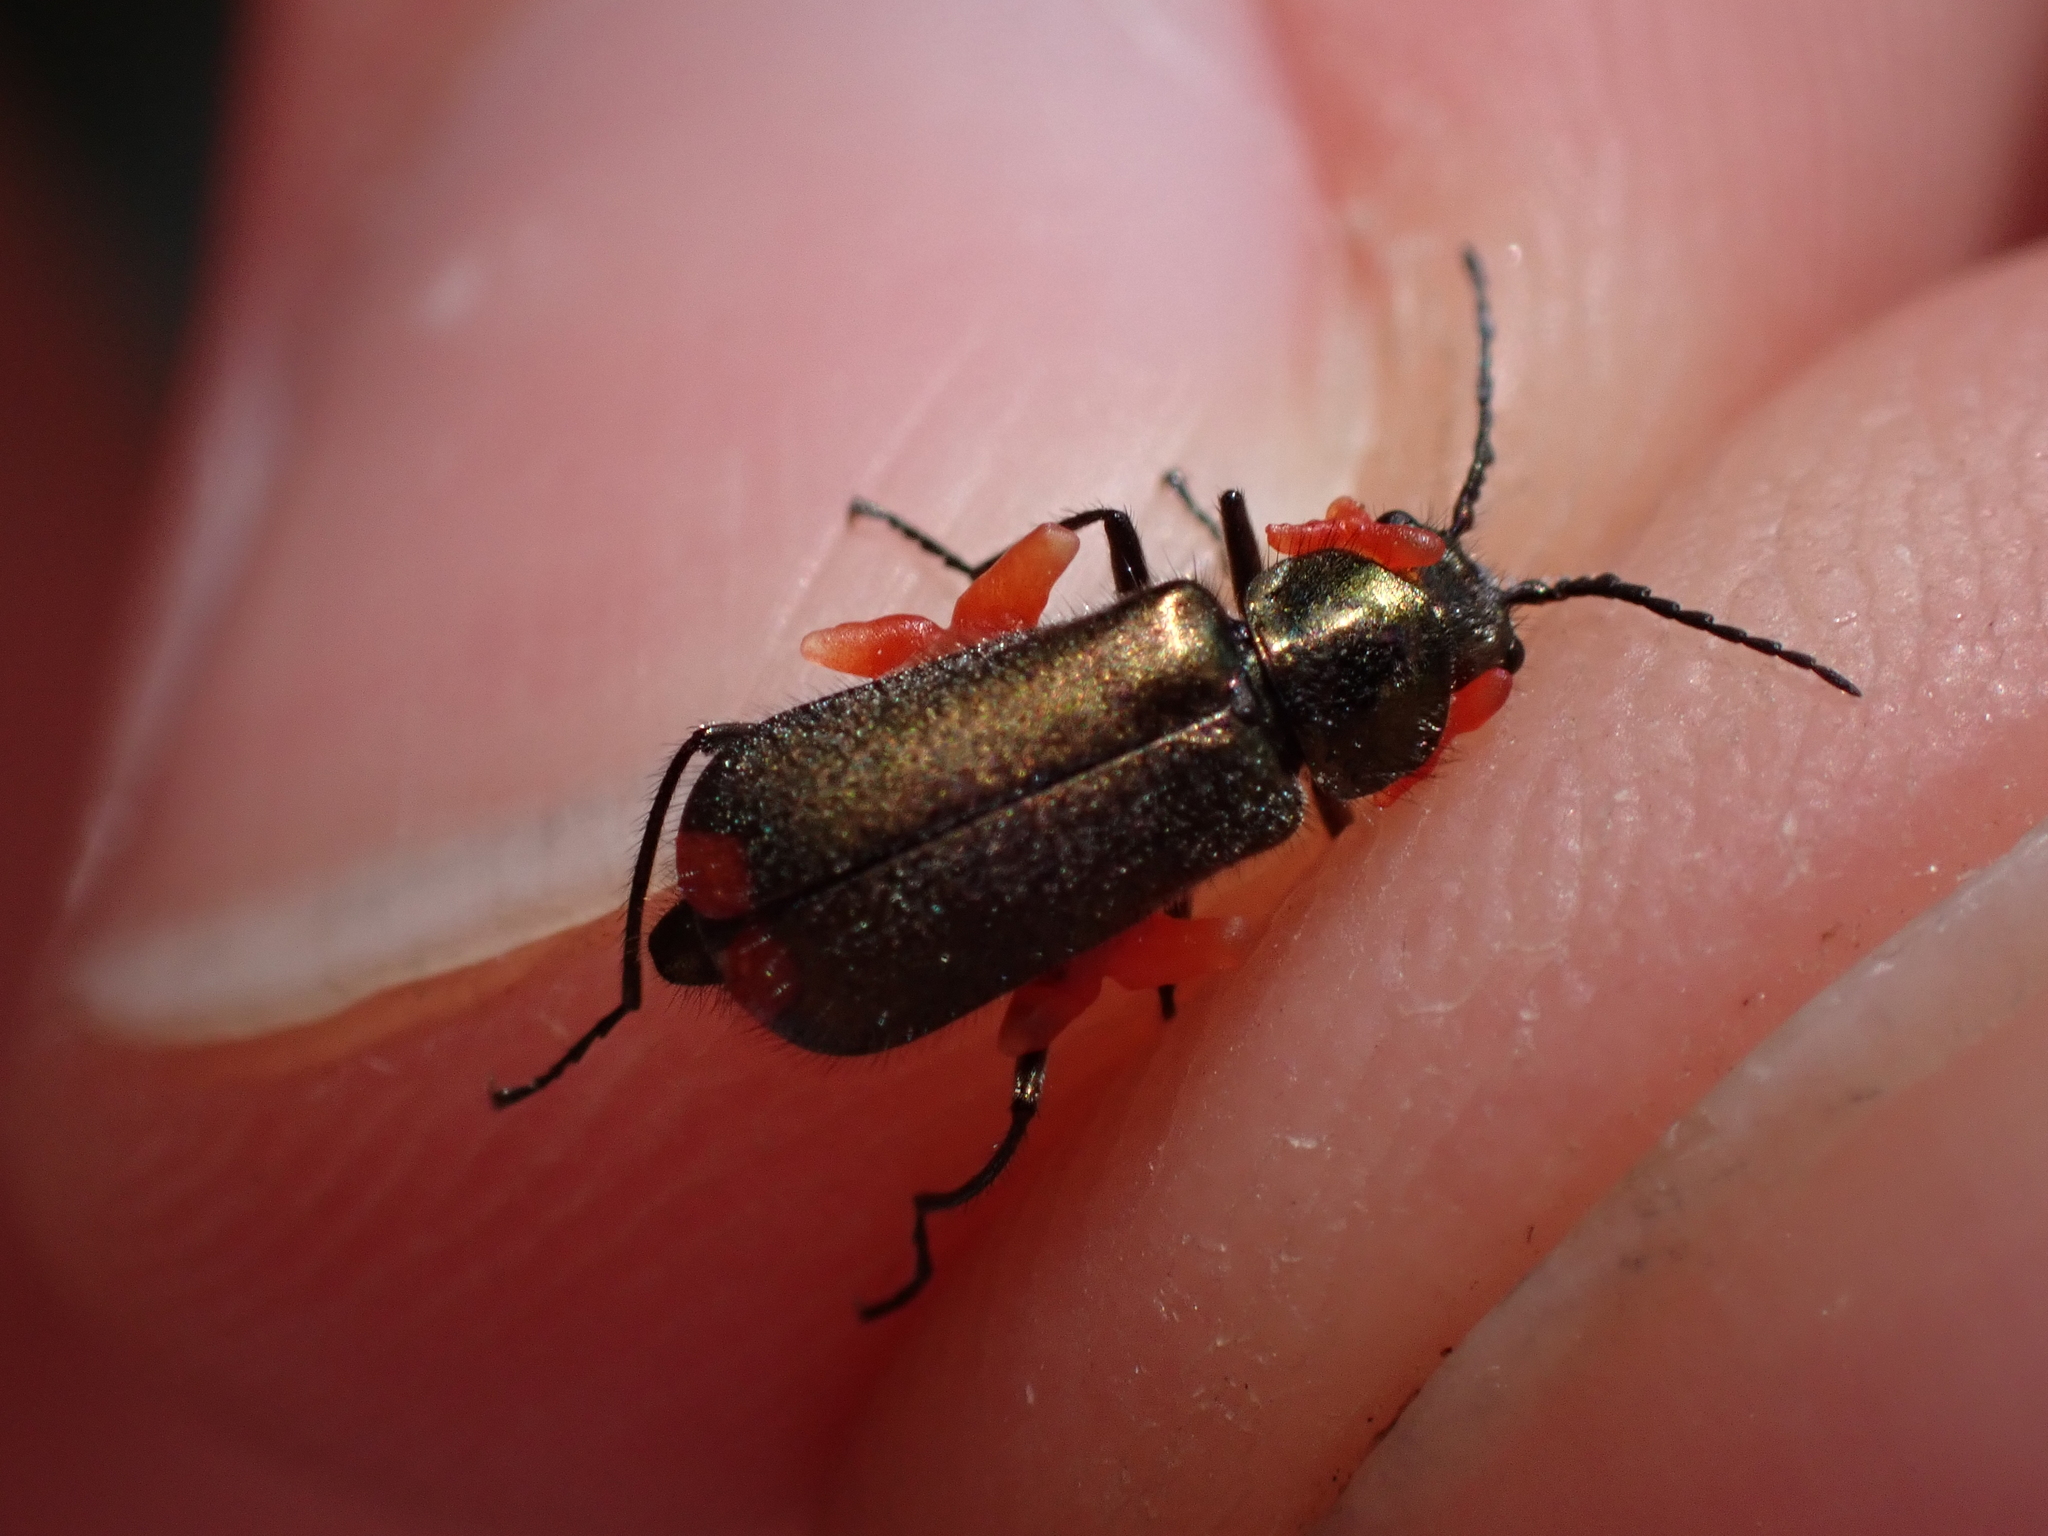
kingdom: Animalia
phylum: Arthropoda
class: Insecta
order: Coleoptera
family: Melyridae
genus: Malachius
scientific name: Malachius bipustulatus
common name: Malachite beetle
